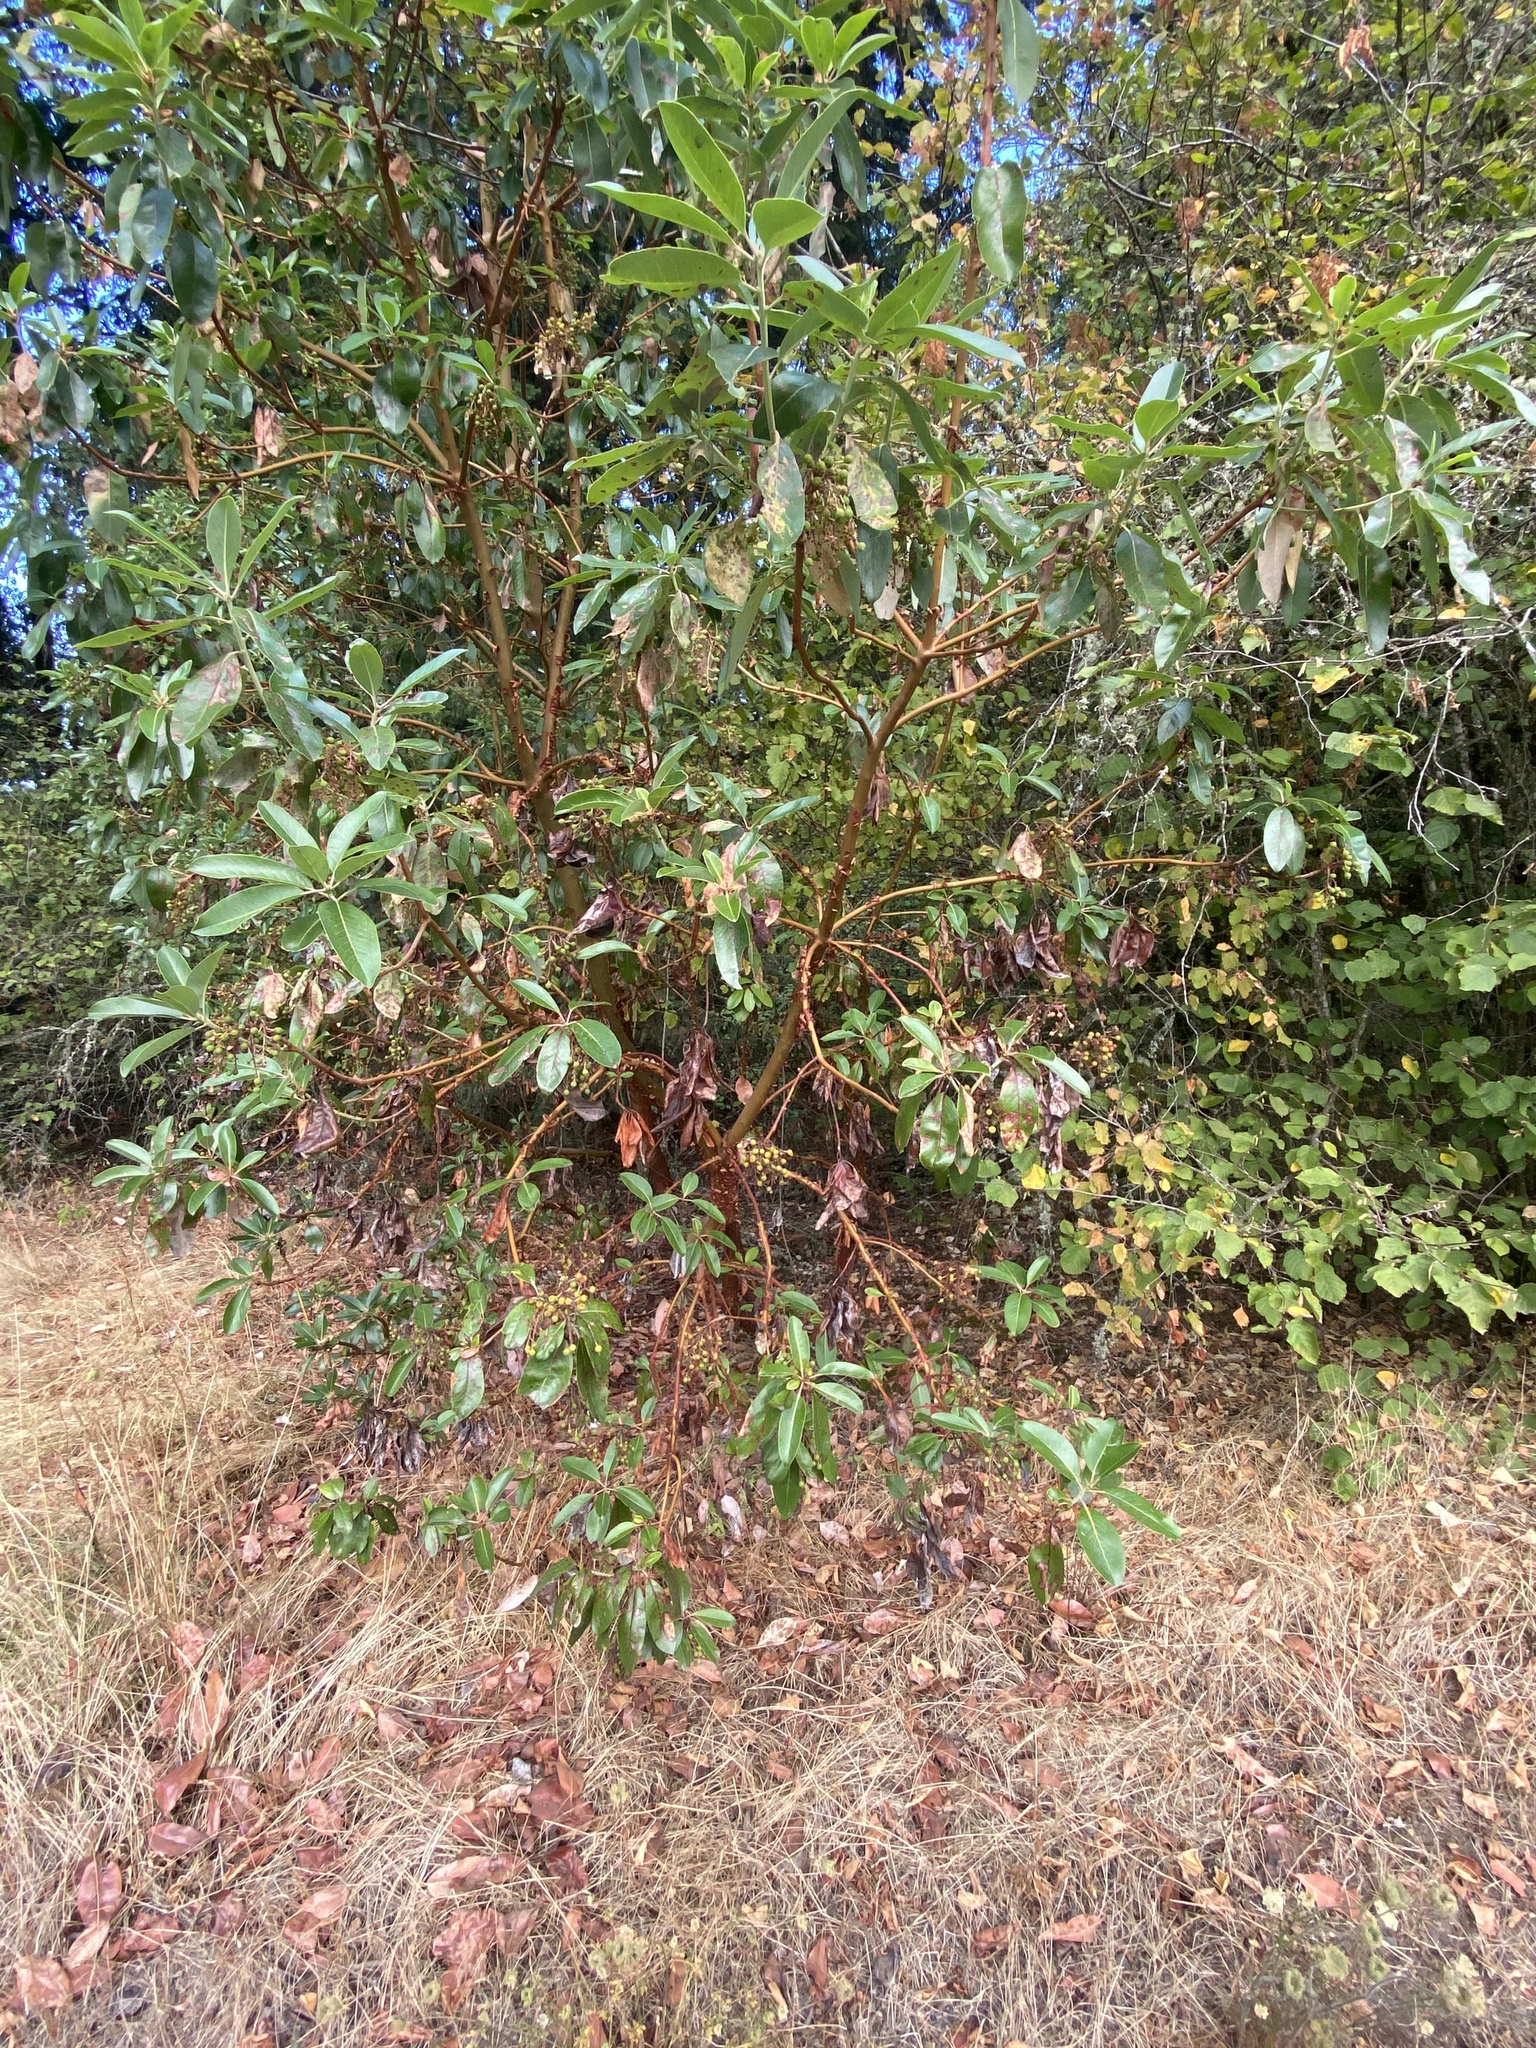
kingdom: Plantae
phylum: Tracheophyta
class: Magnoliopsida
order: Ericales
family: Ericaceae
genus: Arbutus
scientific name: Arbutus menziesii
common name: Pacific madrone
